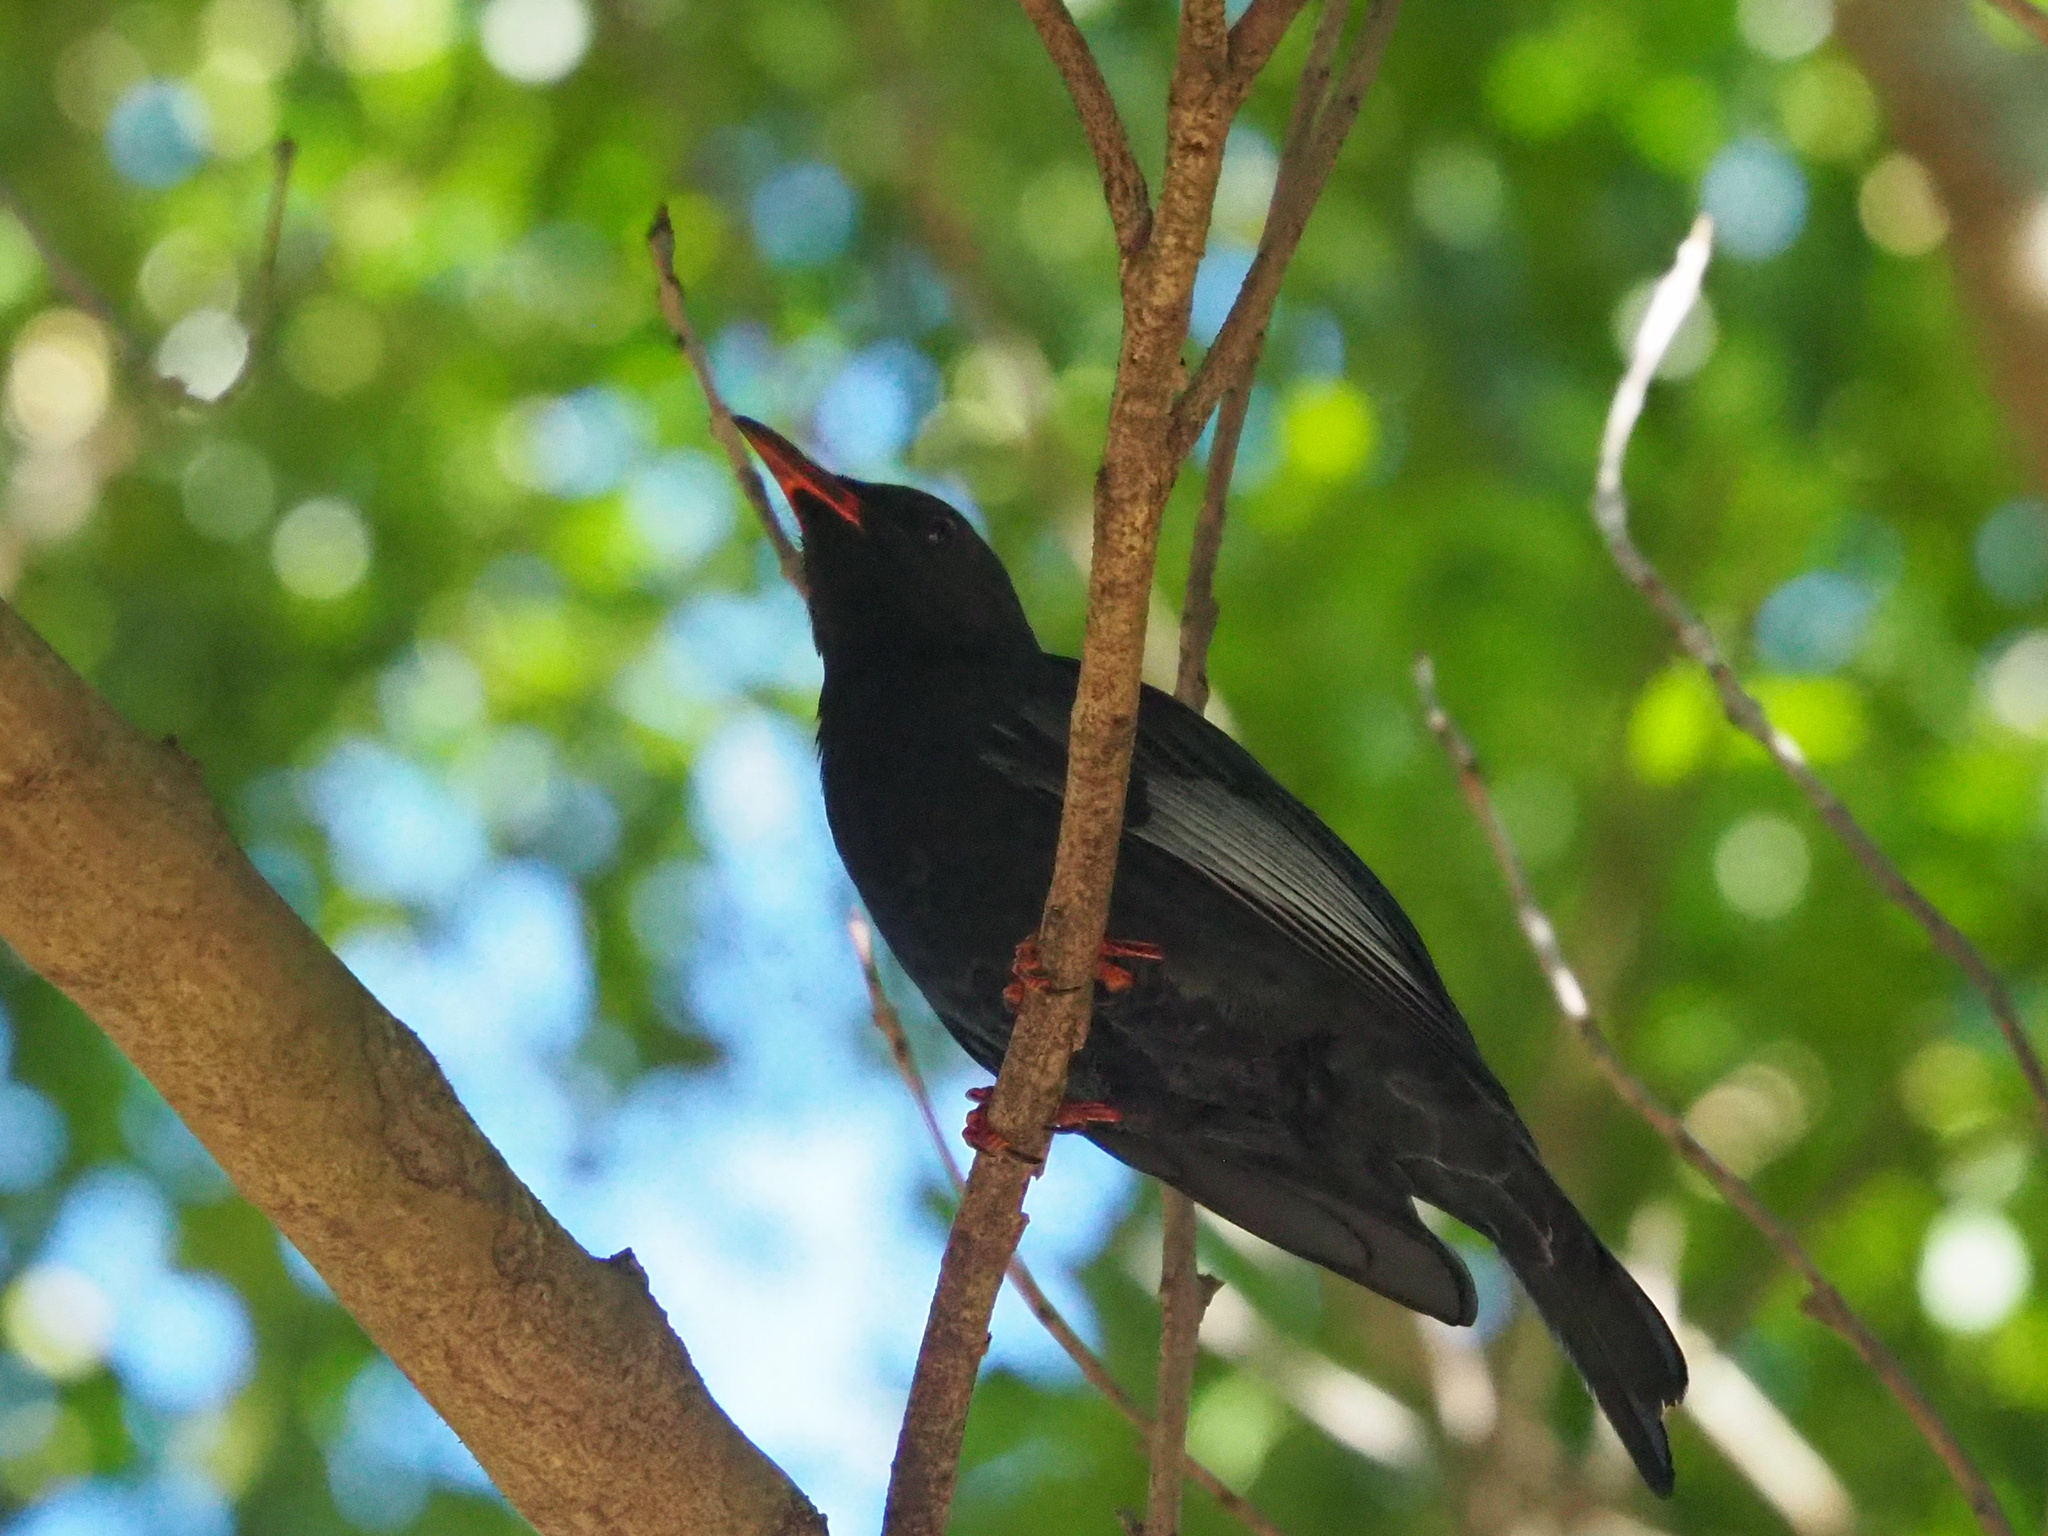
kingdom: Animalia
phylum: Chordata
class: Aves
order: Passeriformes
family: Pycnonotidae
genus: Hypsipetes
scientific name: Hypsipetes leucocephalus
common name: Black bulbul
